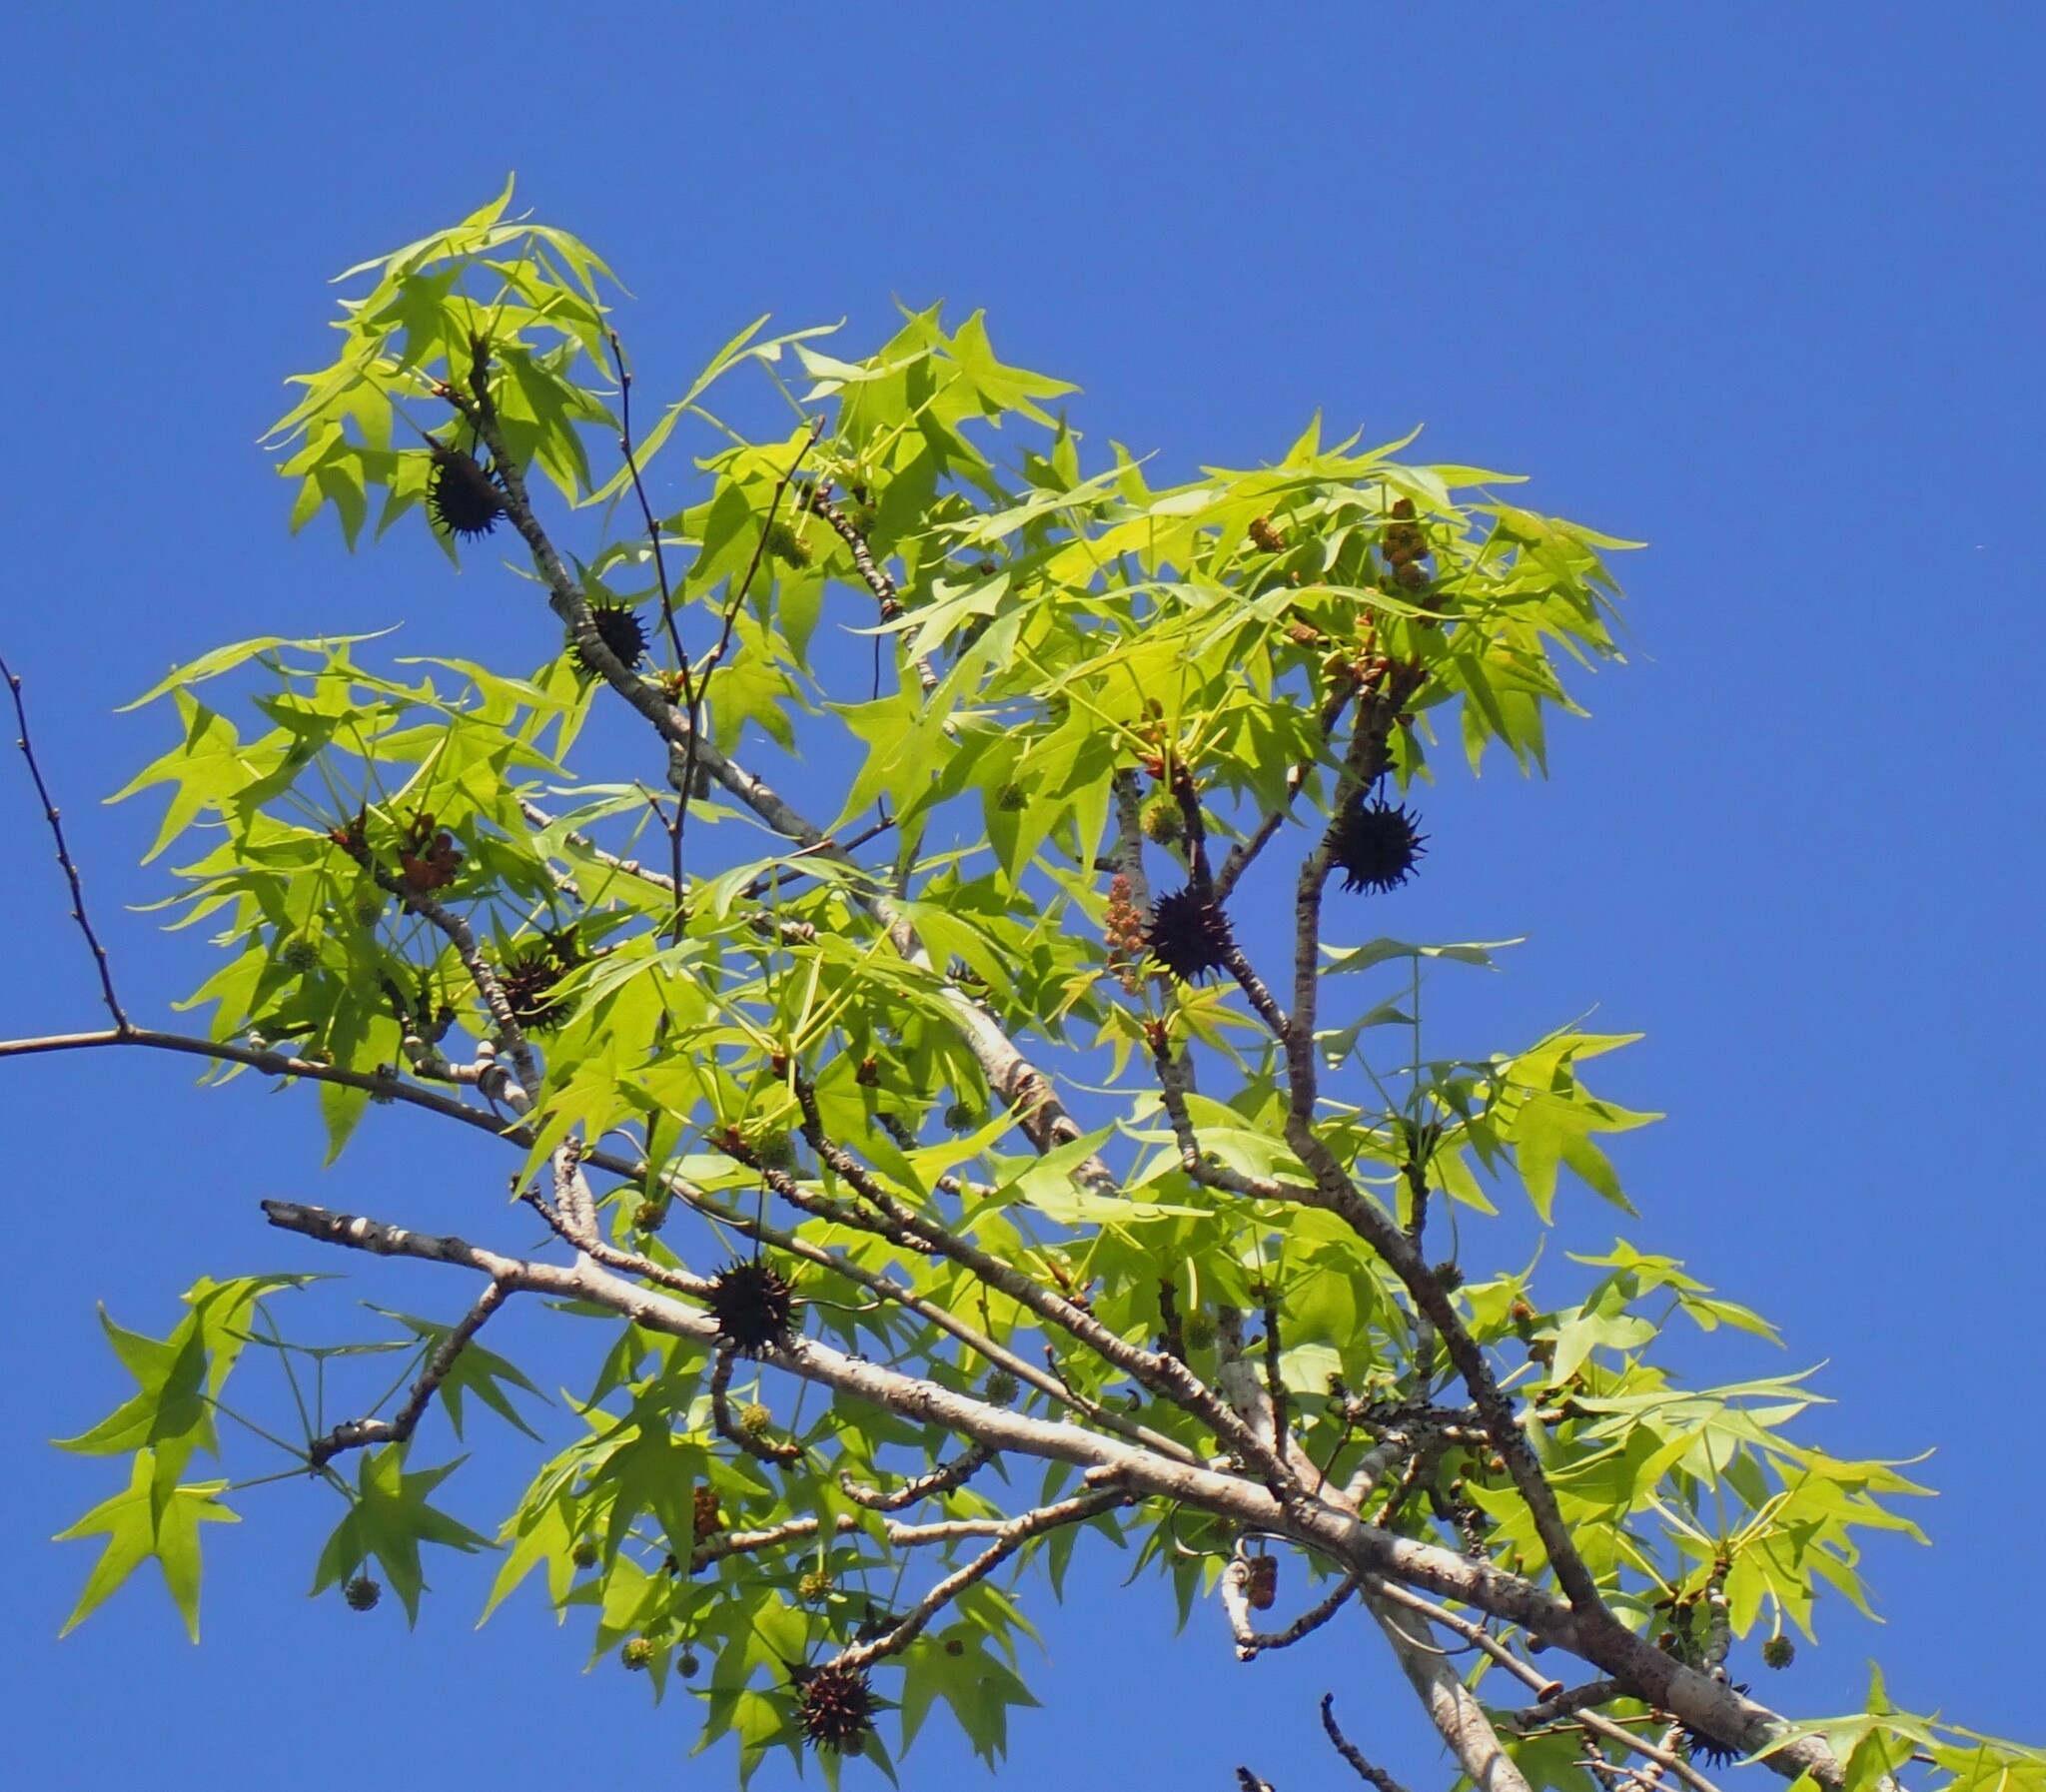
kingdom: Plantae
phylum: Tracheophyta
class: Magnoliopsida
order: Saxifragales
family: Altingiaceae
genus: Liquidambar
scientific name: Liquidambar styraciflua
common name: Sweet gum
